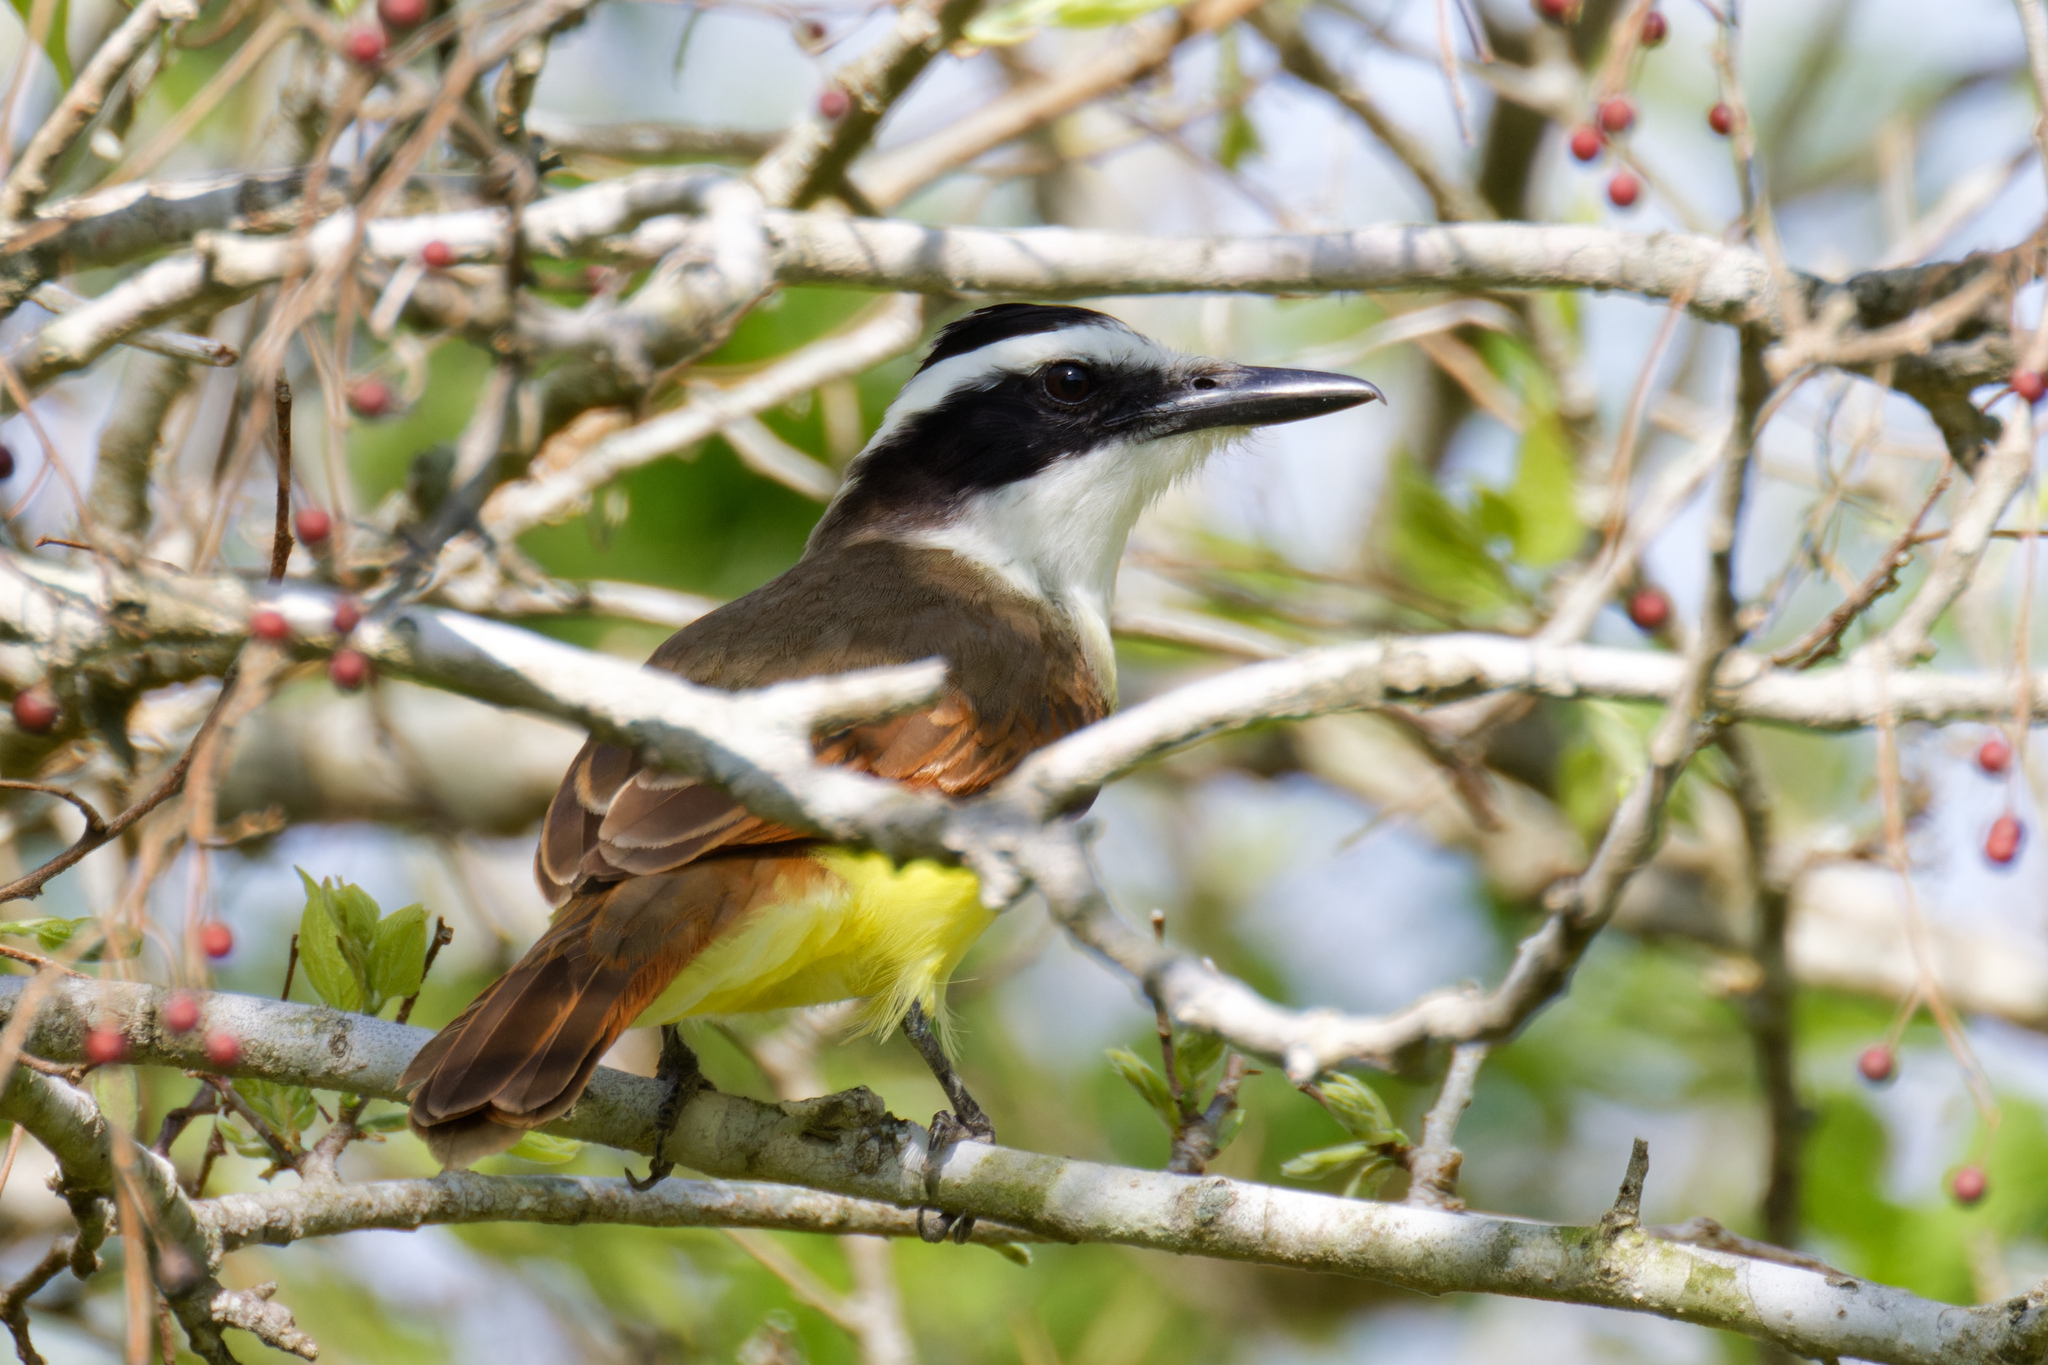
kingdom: Animalia
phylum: Chordata
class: Aves
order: Passeriformes
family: Tyrannidae
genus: Pitangus
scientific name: Pitangus sulphuratus
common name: Great kiskadee
